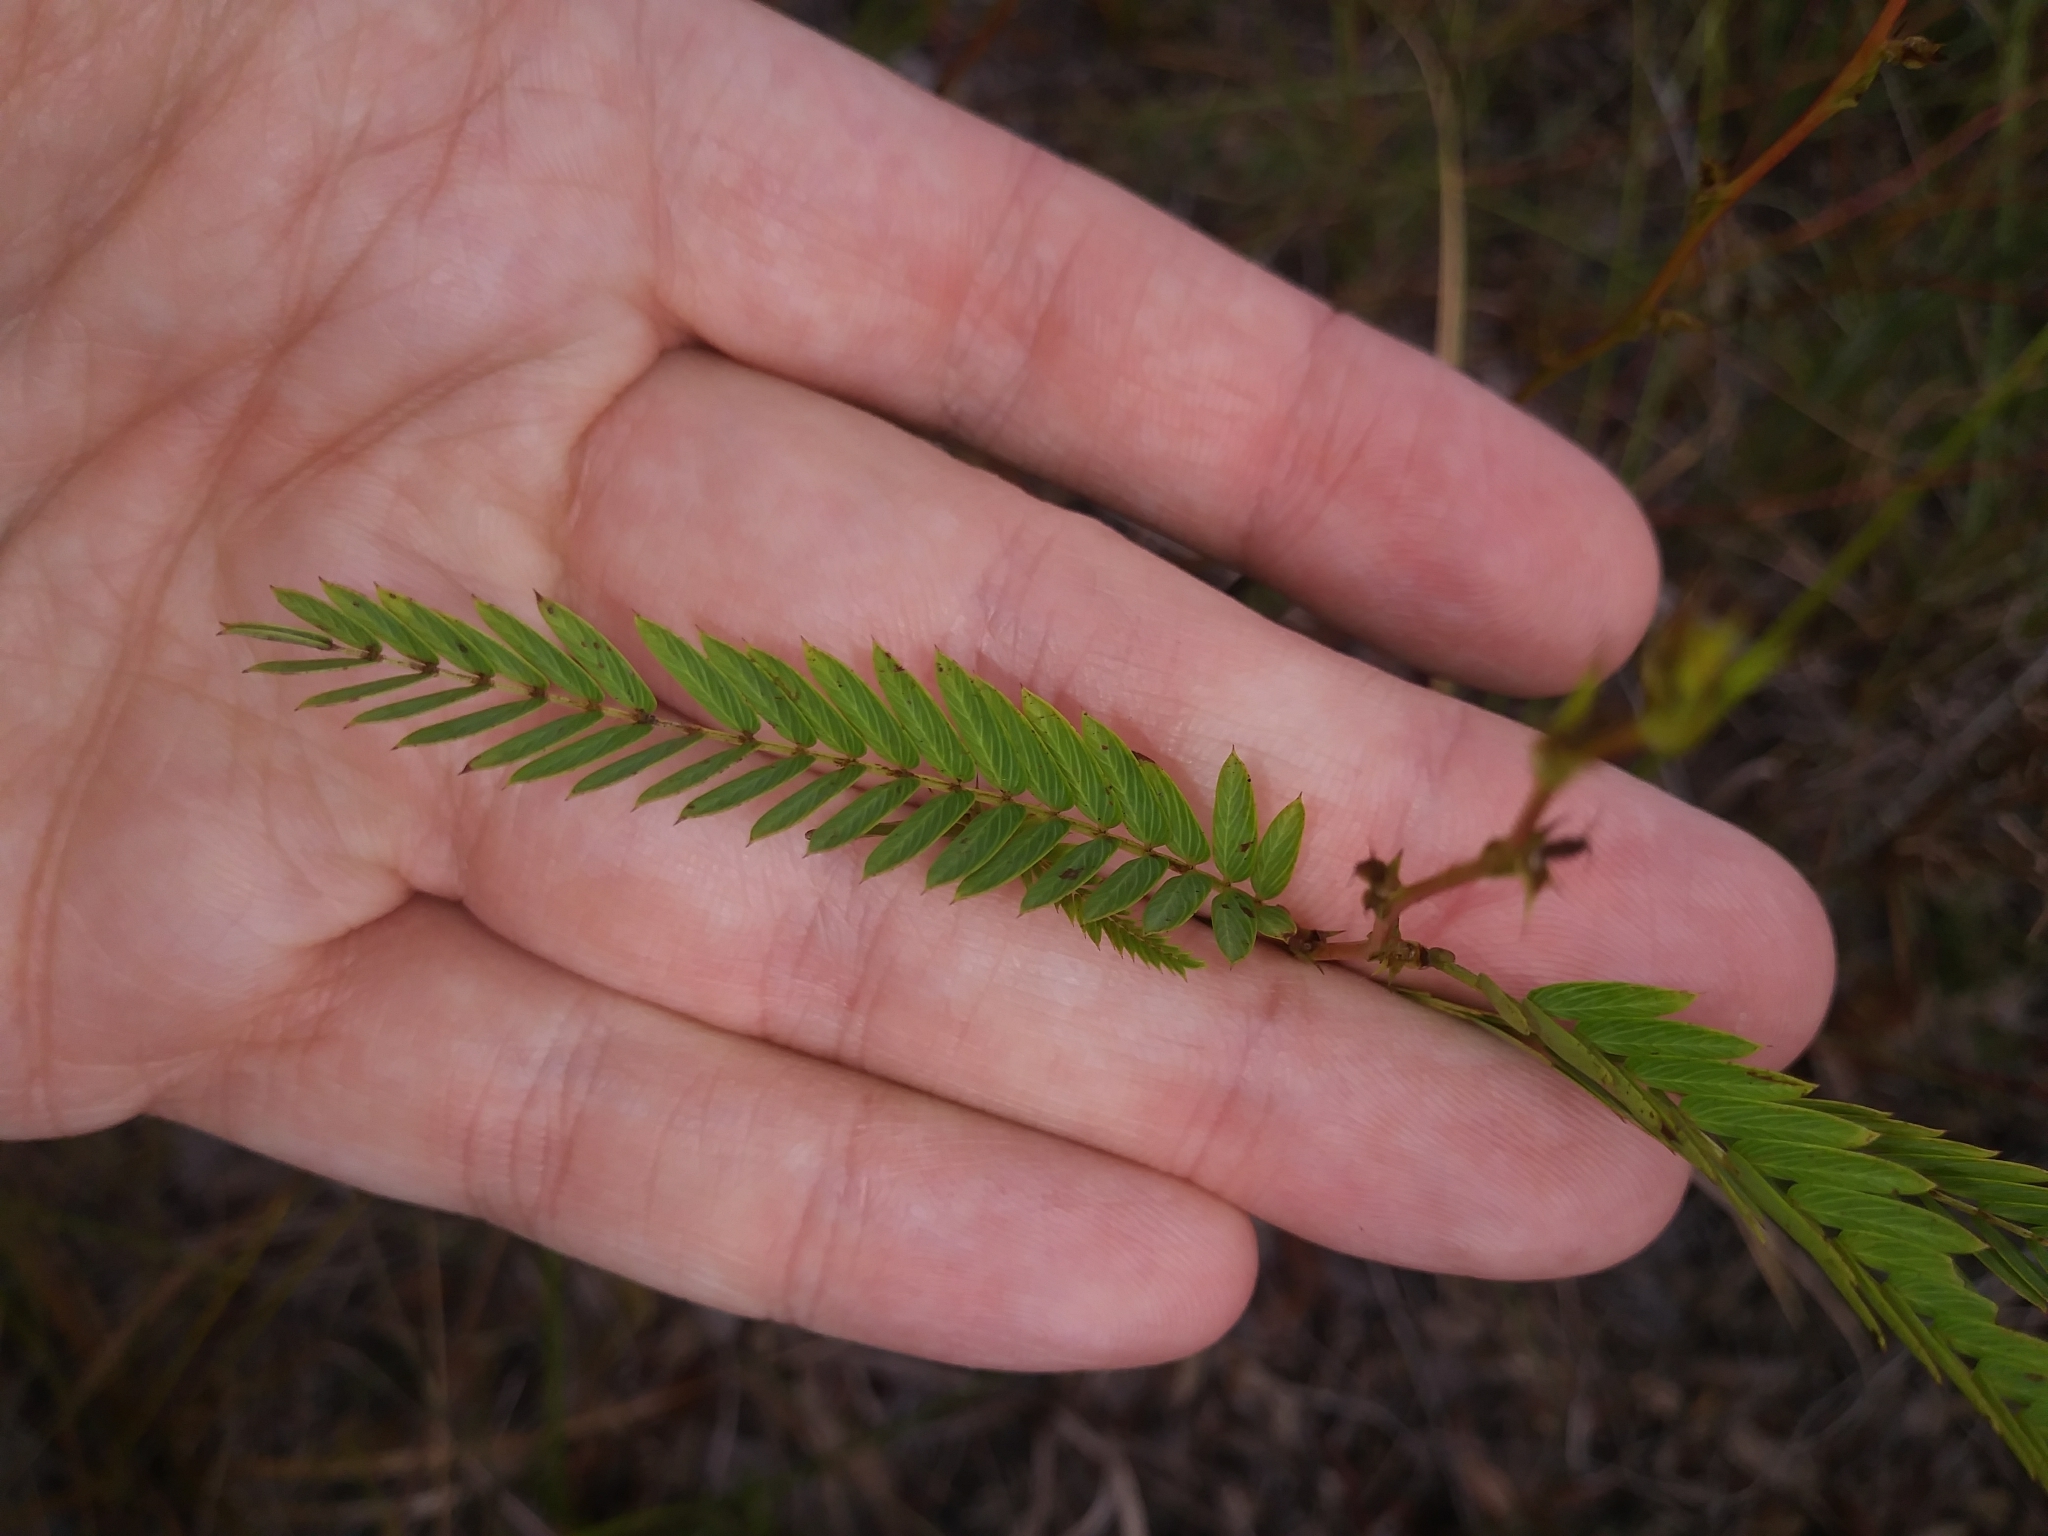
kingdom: Plantae
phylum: Tracheophyta
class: Magnoliopsida
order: Fabales
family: Fabaceae
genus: Chamaecrista
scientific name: Chamaecrista fasciculata
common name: Golden cassia
